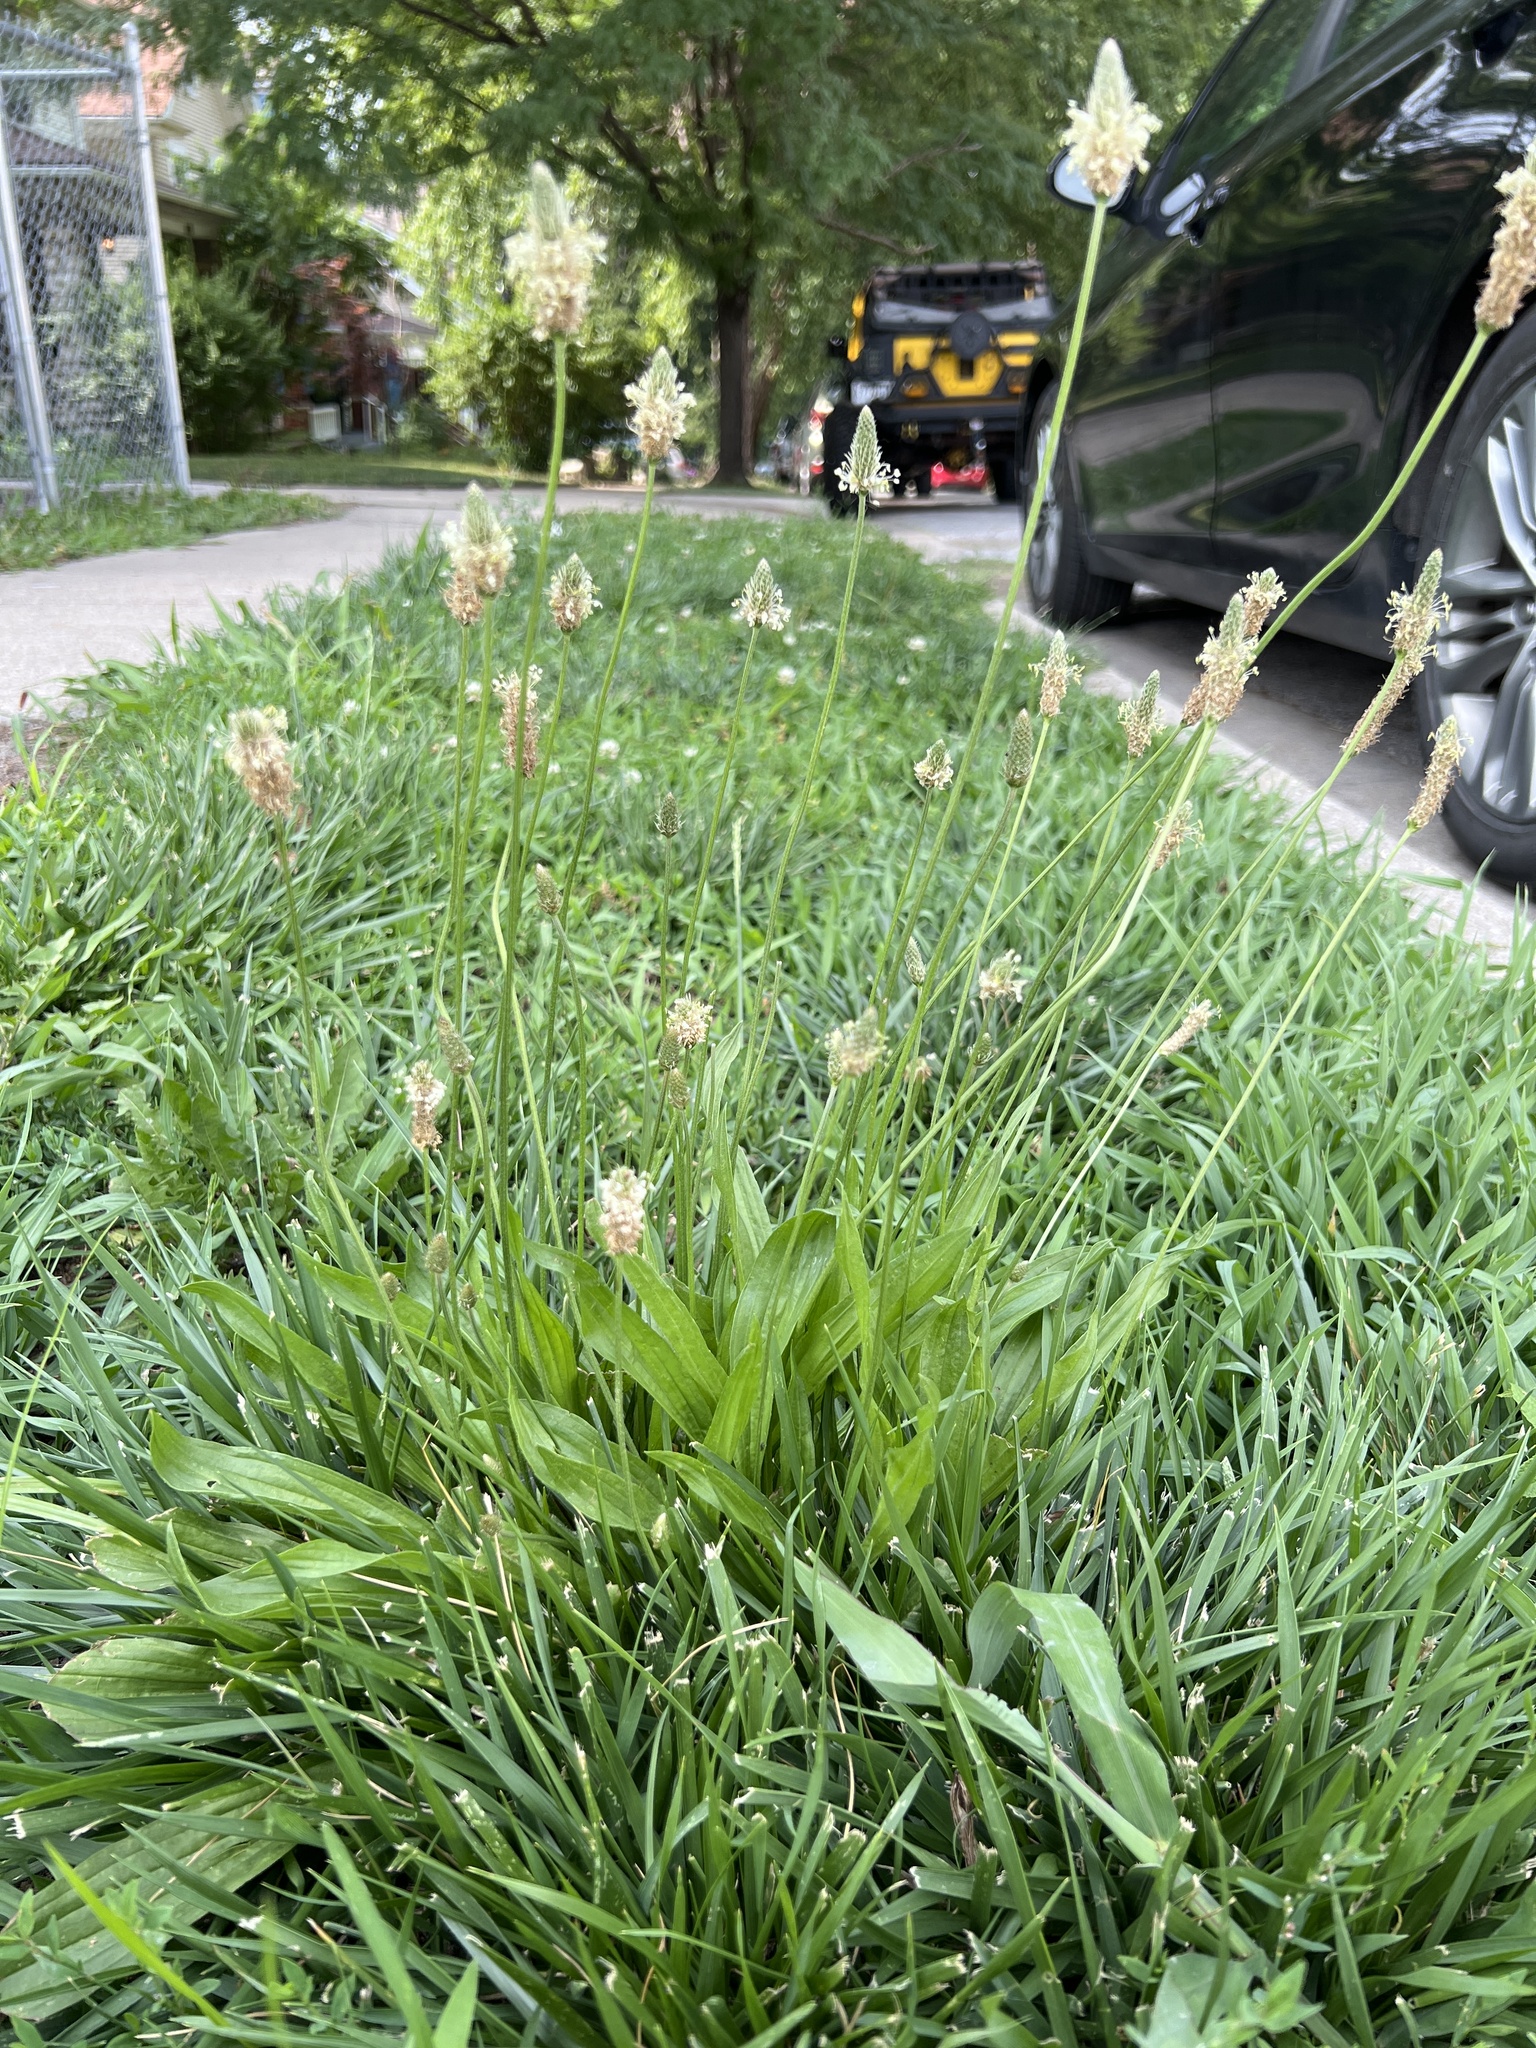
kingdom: Plantae
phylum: Tracheophyta
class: Magnoliopsida
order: Lamiales
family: Plantaginaceae
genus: Plantago
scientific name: Plantago lanceolata
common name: Ribwort plantain
